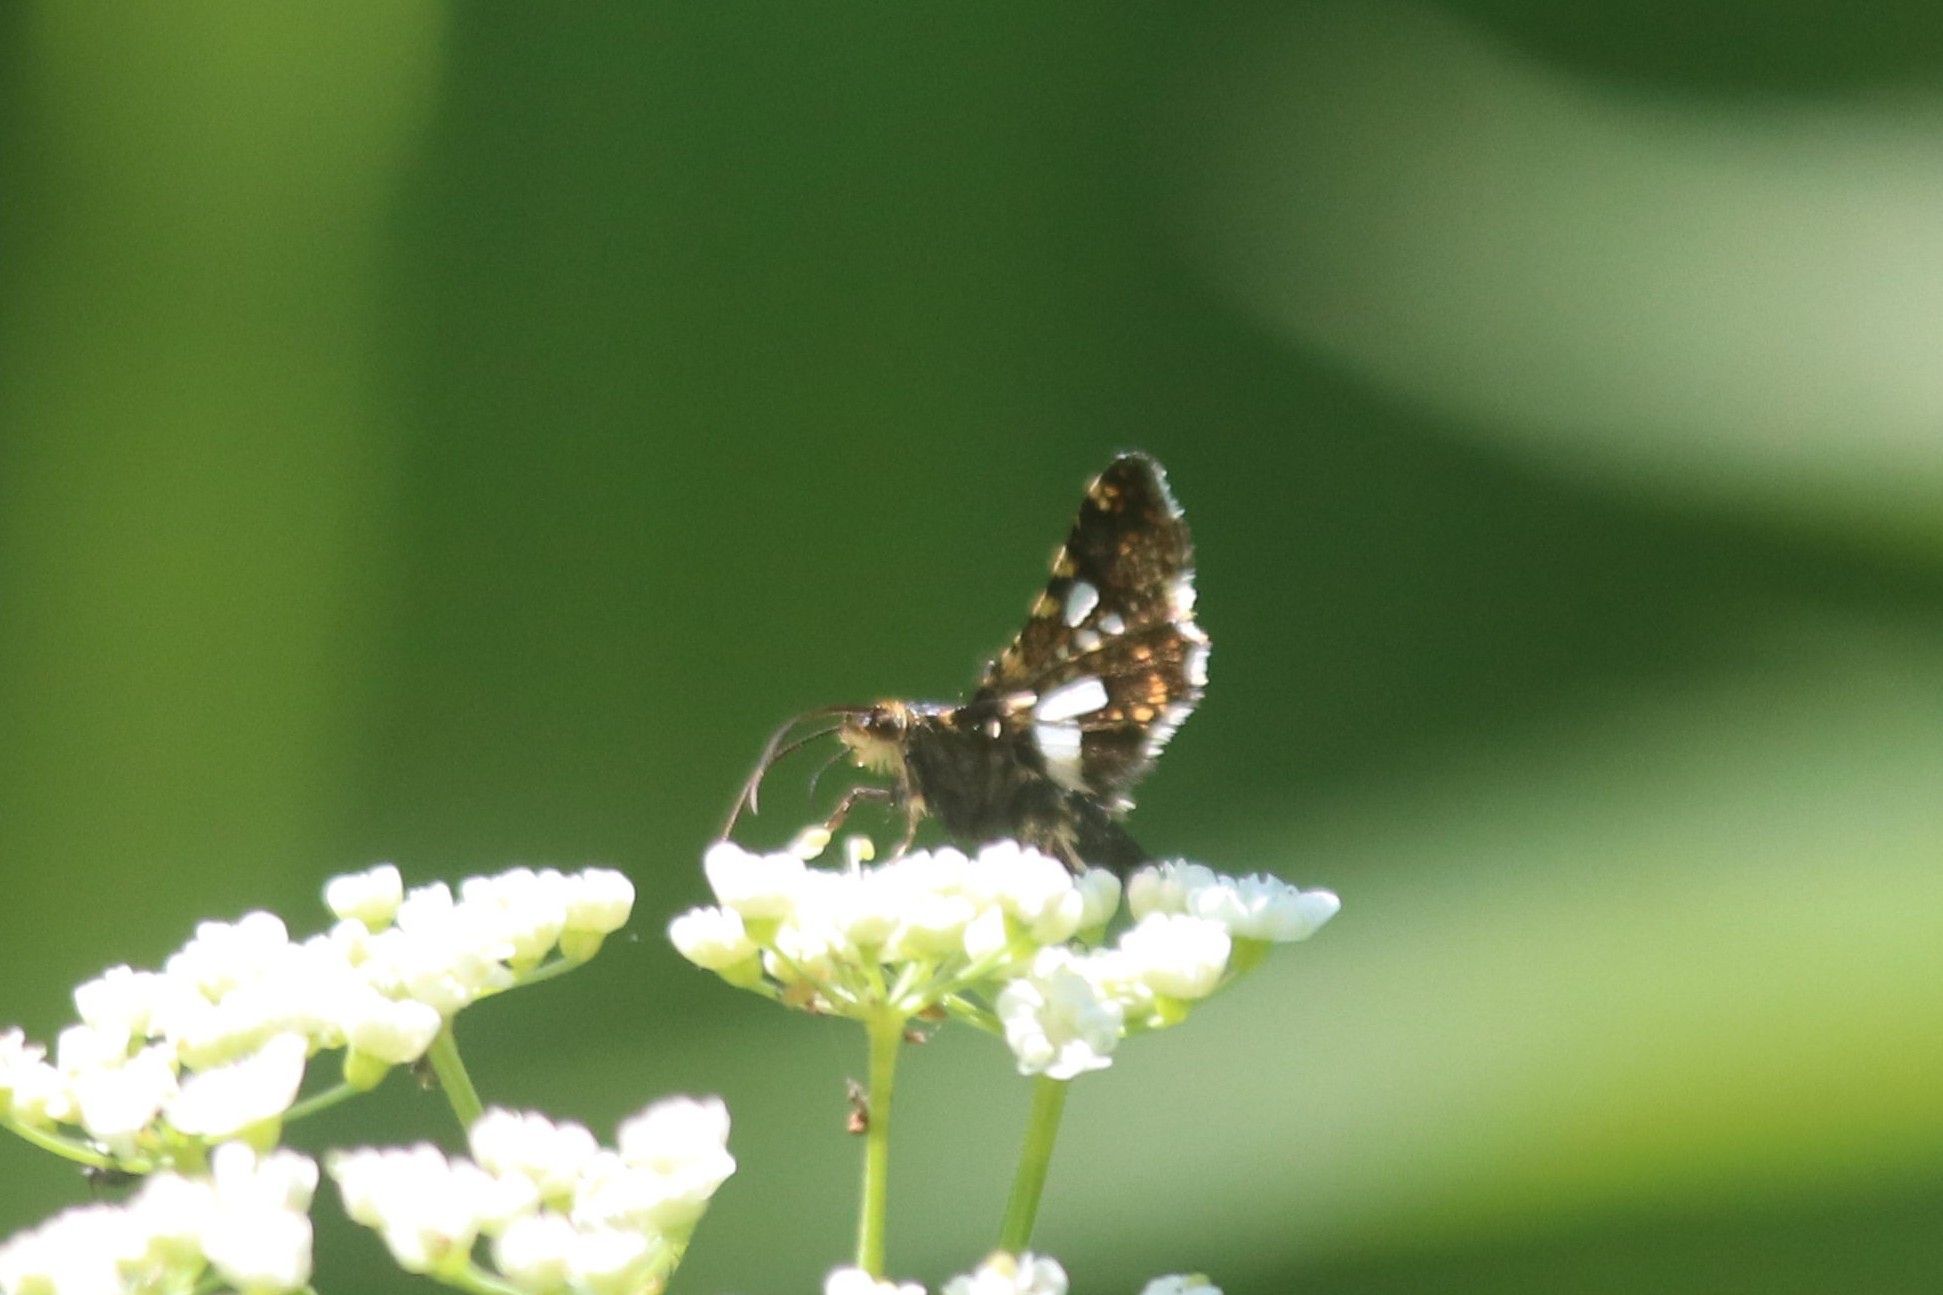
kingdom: Animalia
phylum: Arthropoda
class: Insecta
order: Lepidoptera
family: Thyrididae
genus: Thyris
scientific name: Thyris fenestrella
